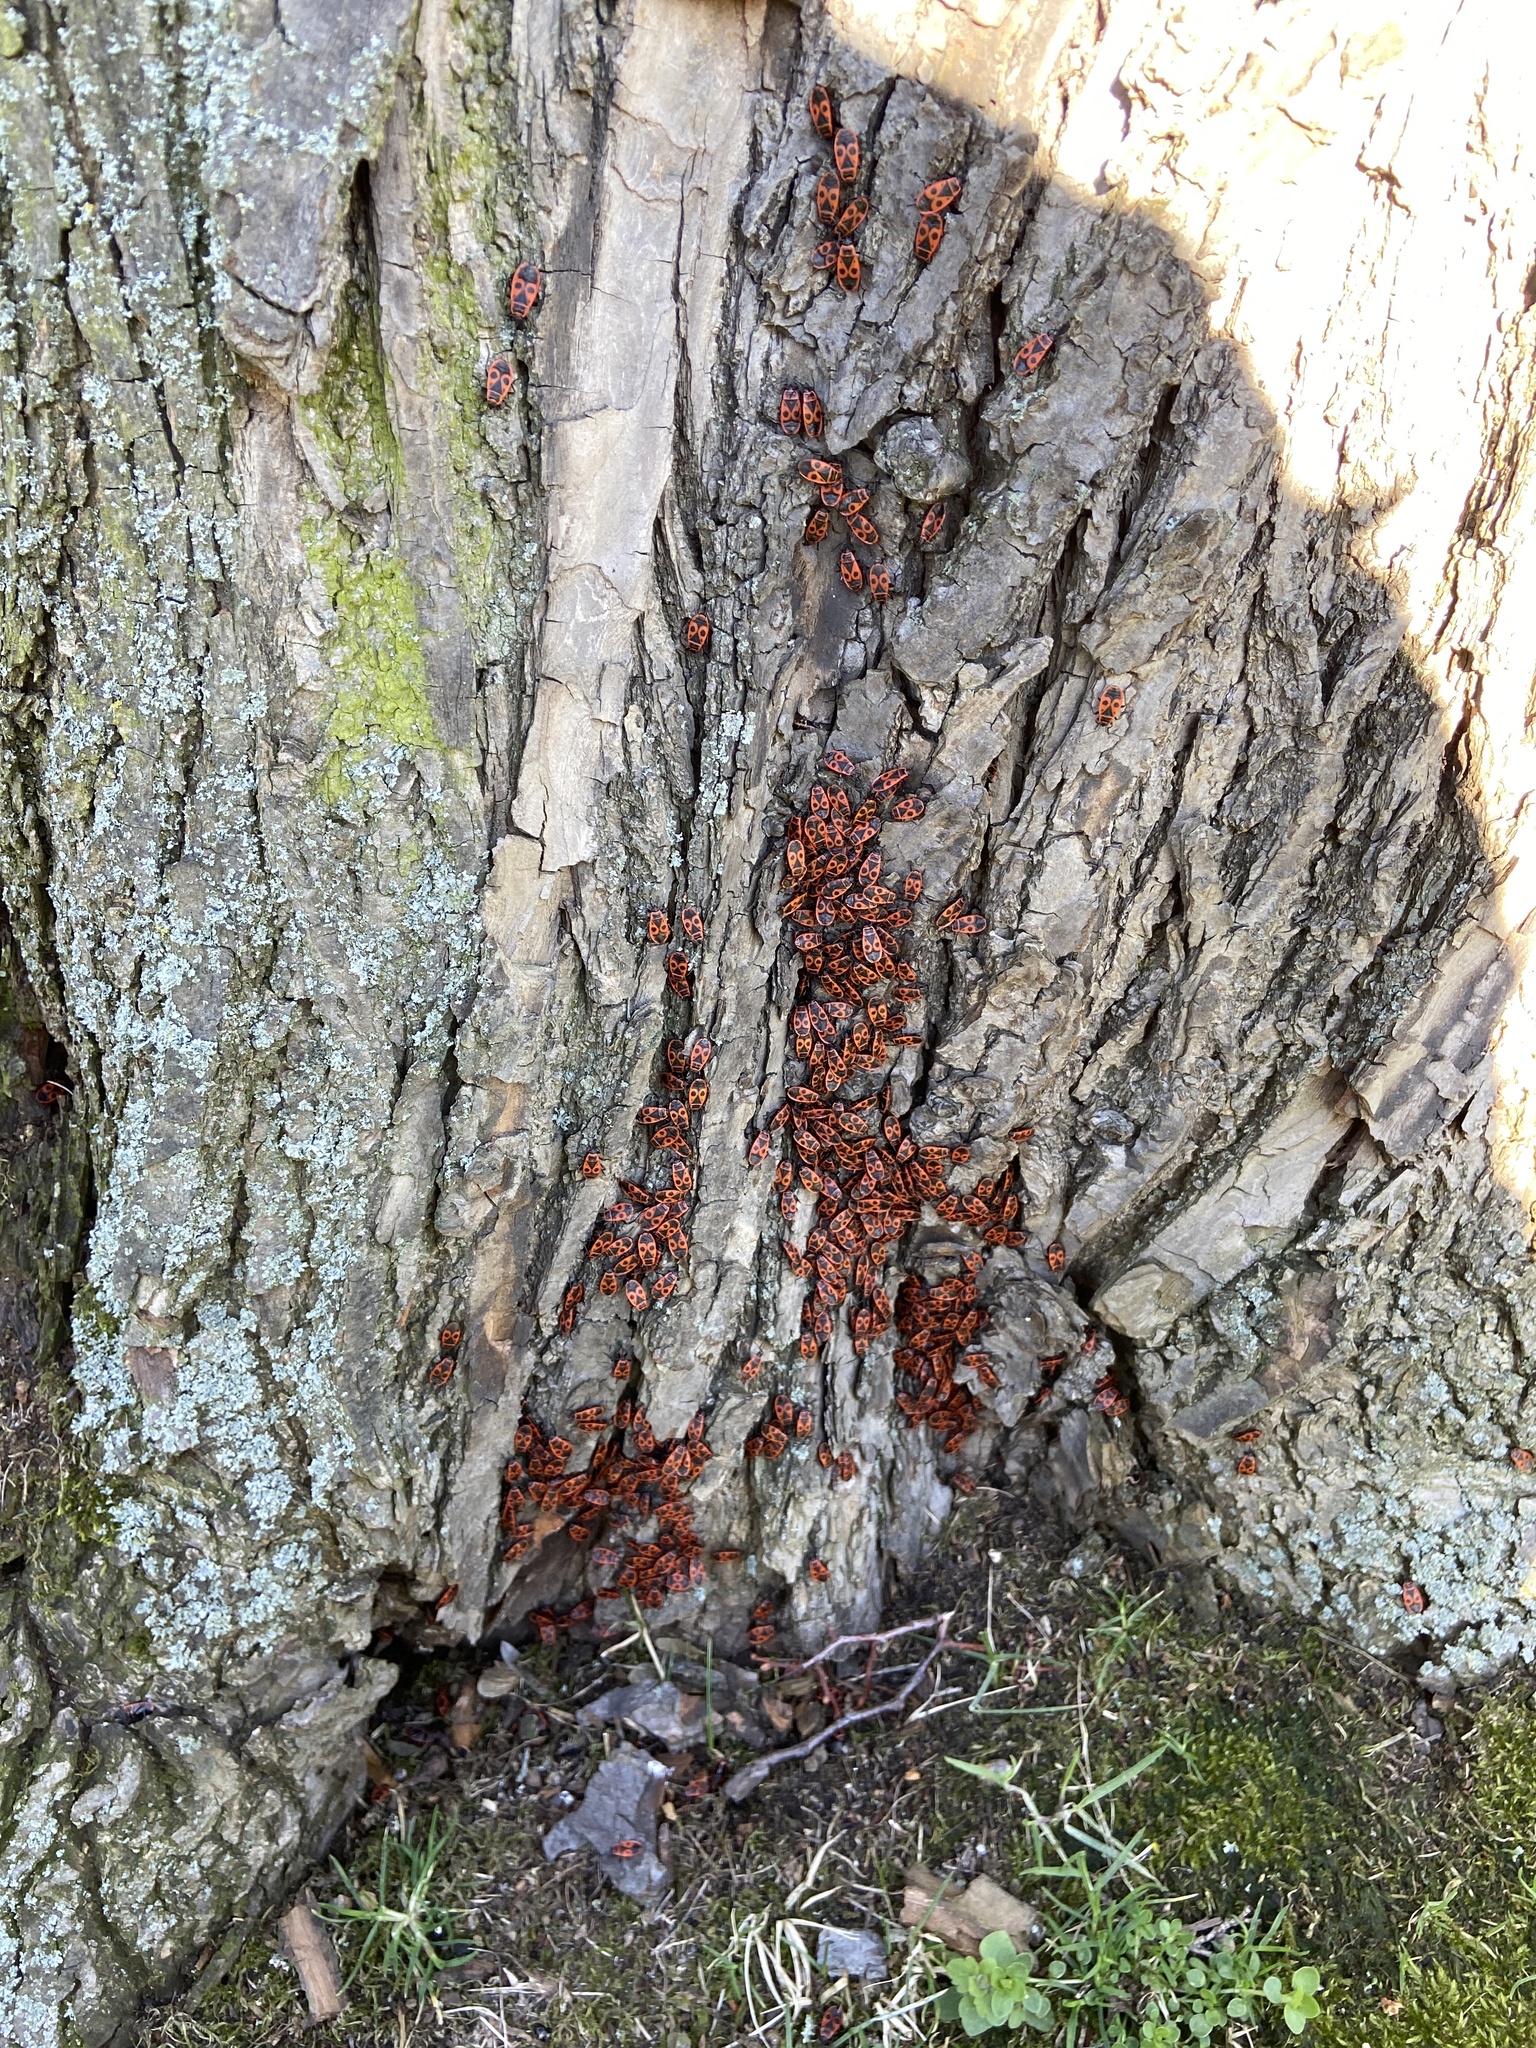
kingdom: Animalia
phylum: Arthropoda
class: Insecta
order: Hemiptera
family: Pyrrhocoridae
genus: Pyrrhocoris
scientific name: Pyrrhocoris apterus
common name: Firebug
